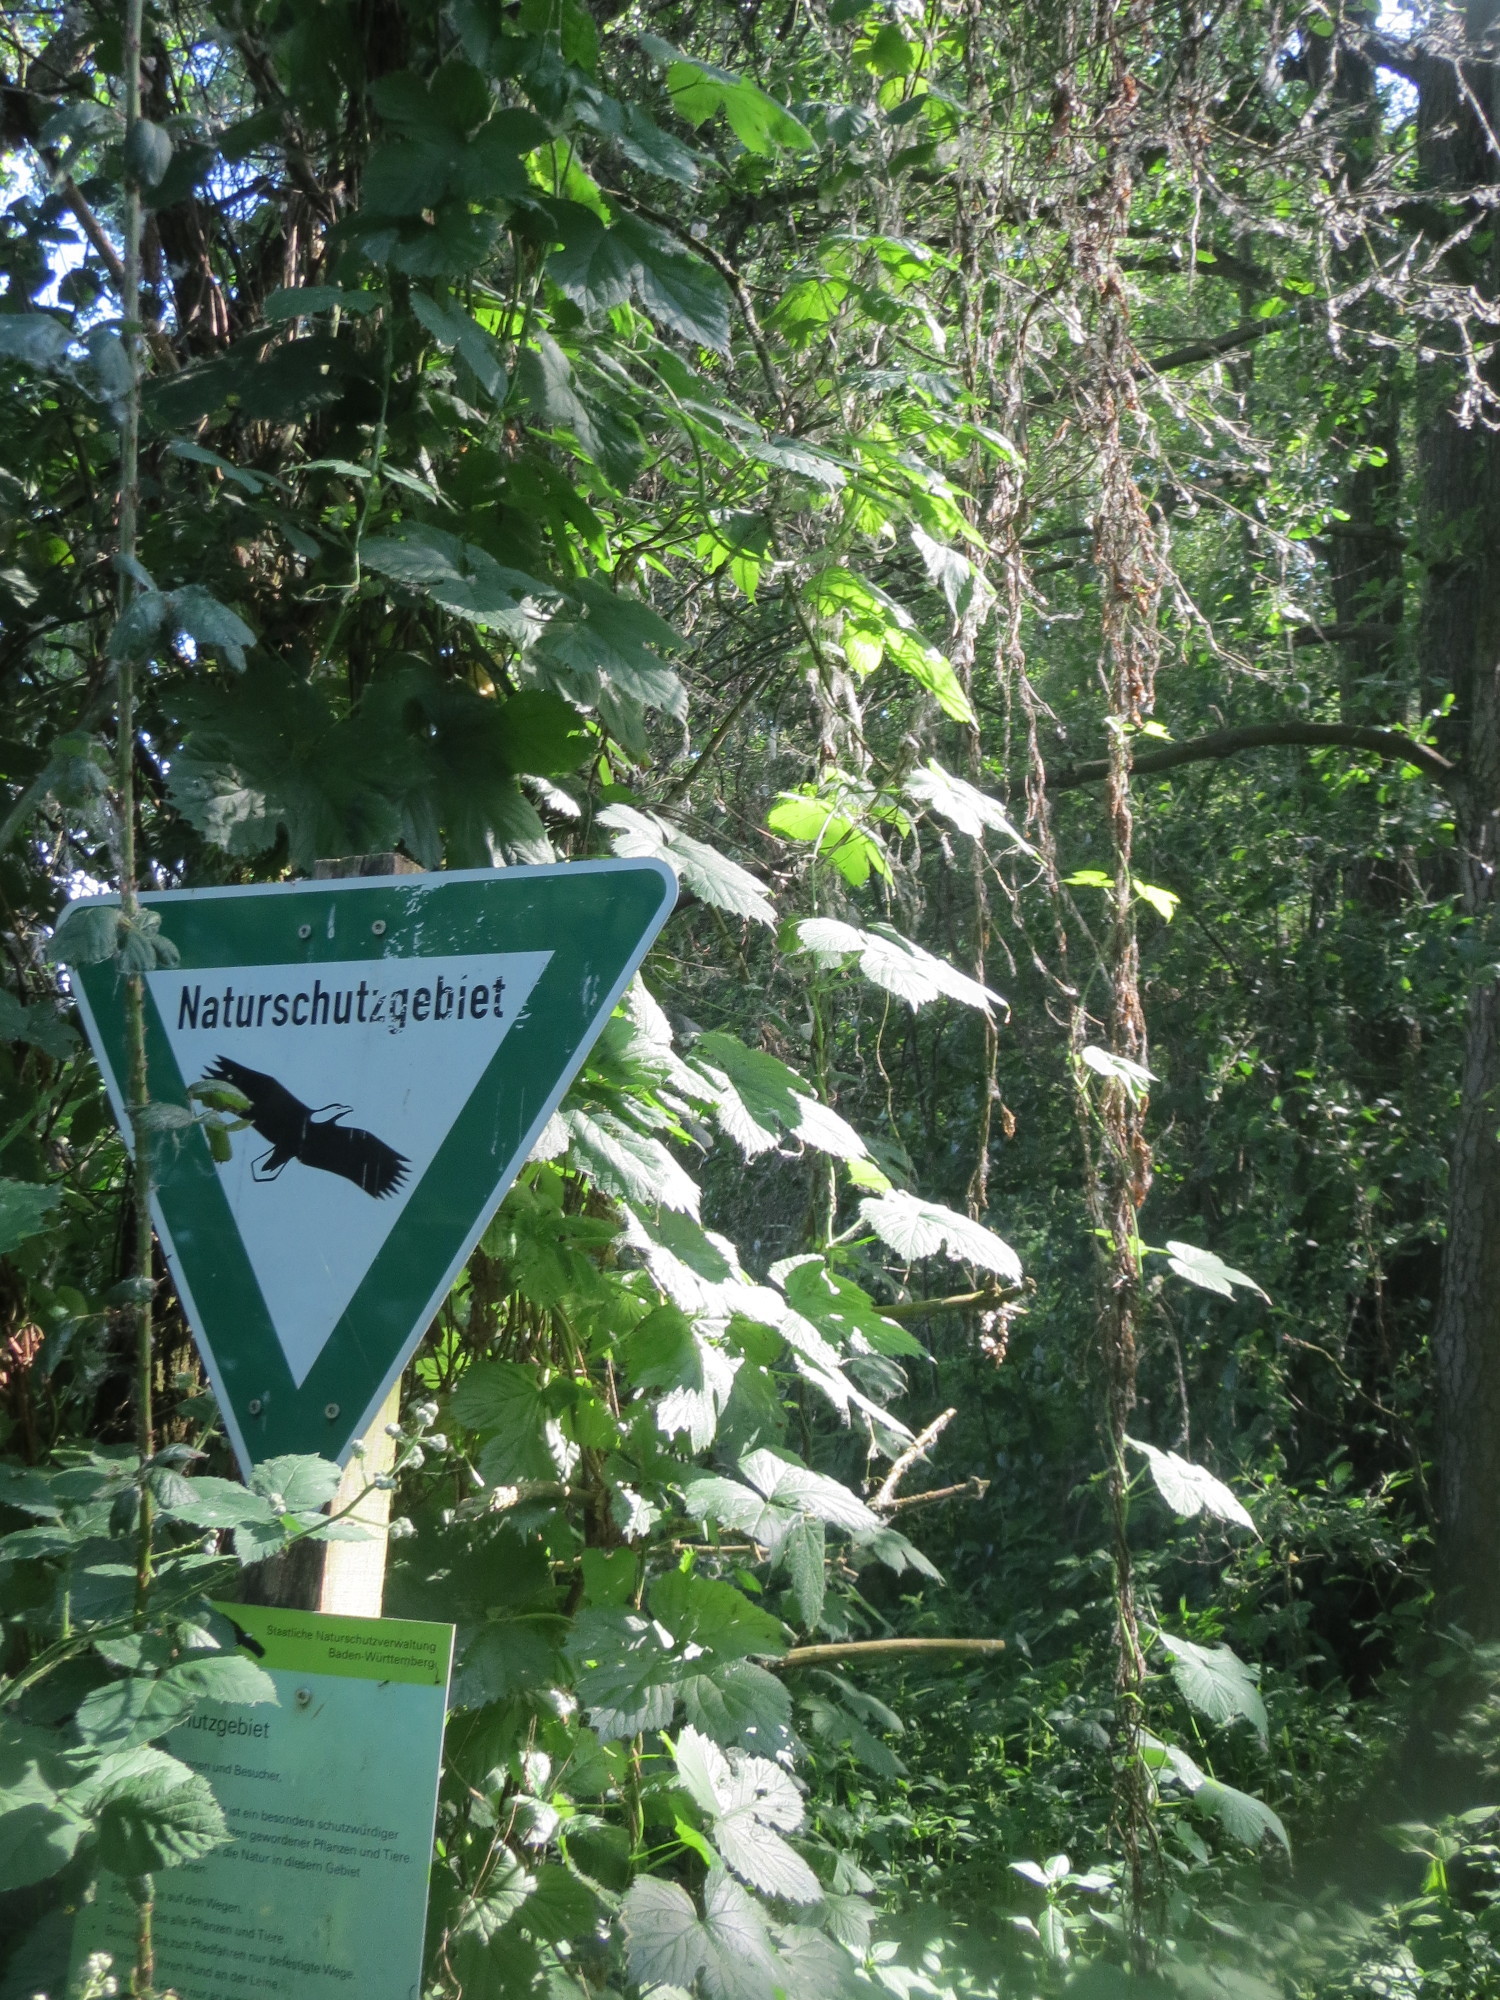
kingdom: Plantae
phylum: Tracheophyta
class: Magnoliopsida
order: Rosales
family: Cannabaceae
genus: Humulus
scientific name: Humulus lupulus
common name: Hop
